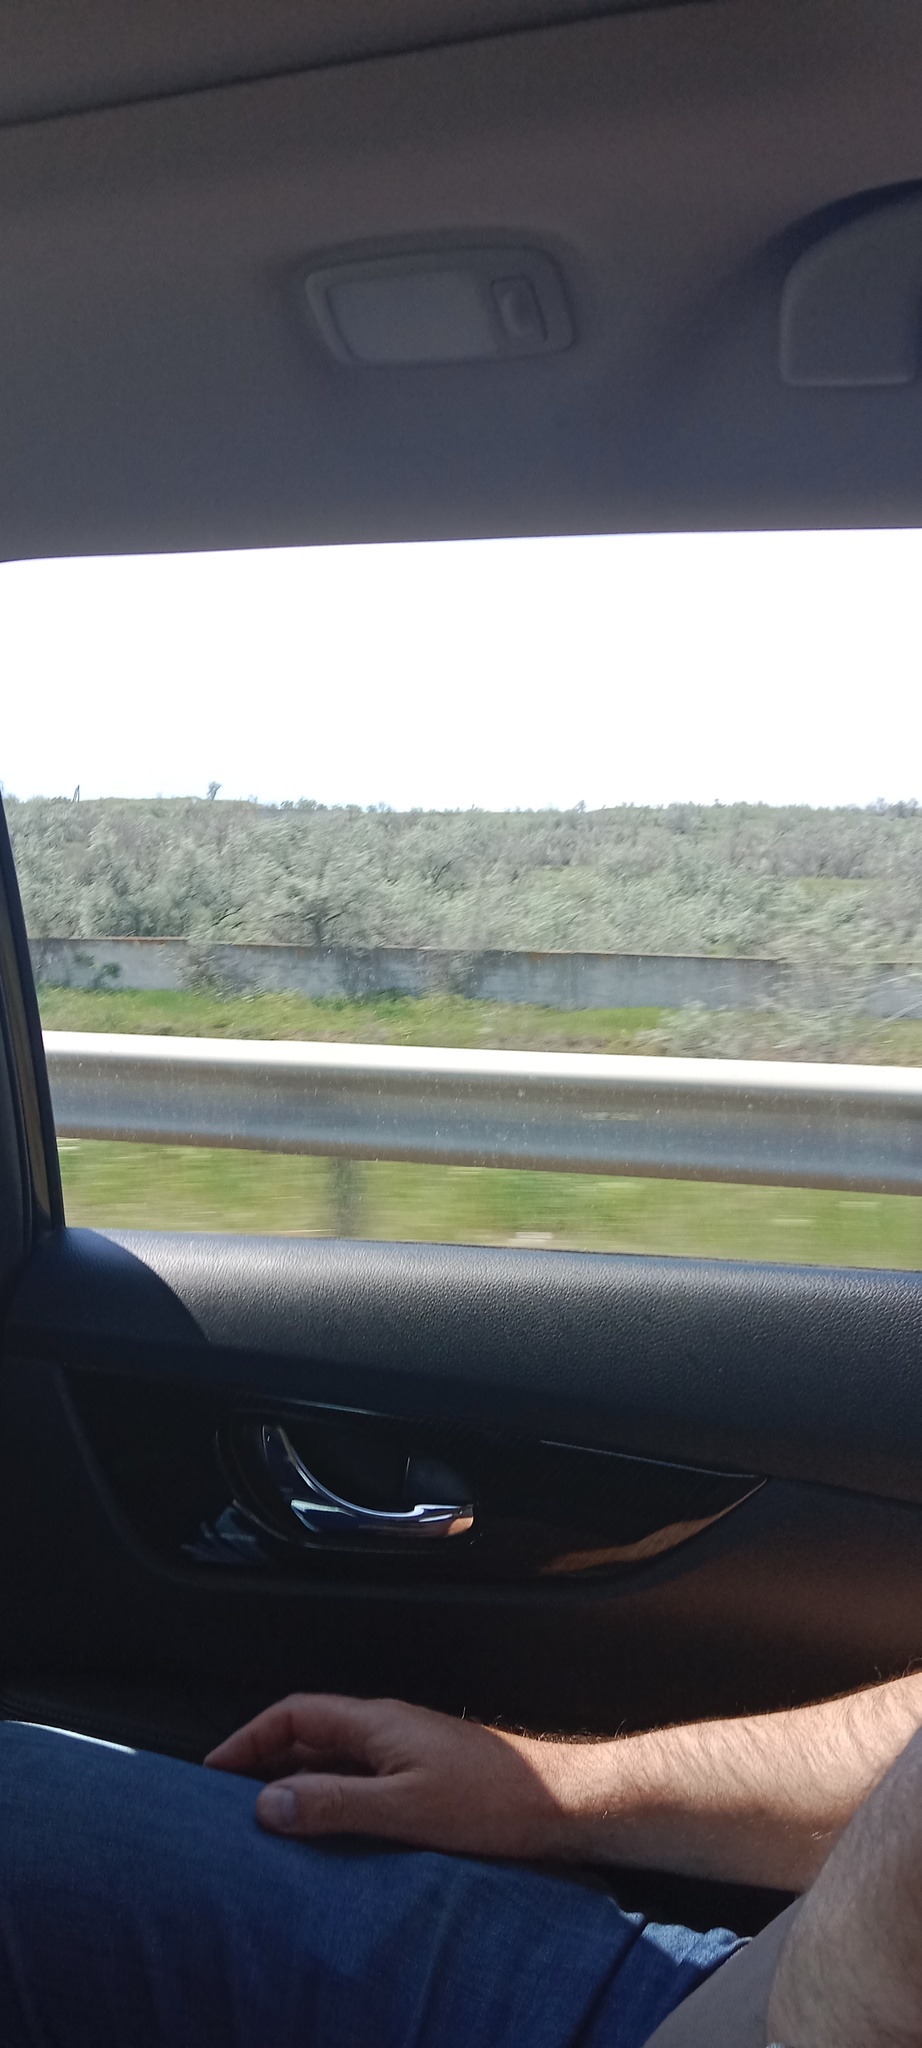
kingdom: Plantae
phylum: Tracheophyta
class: Magnoliopsida
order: Rosales
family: Elaeagnaceae
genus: Elaeagnus
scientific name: Elaeagnus angustifolia
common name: Russian olive
